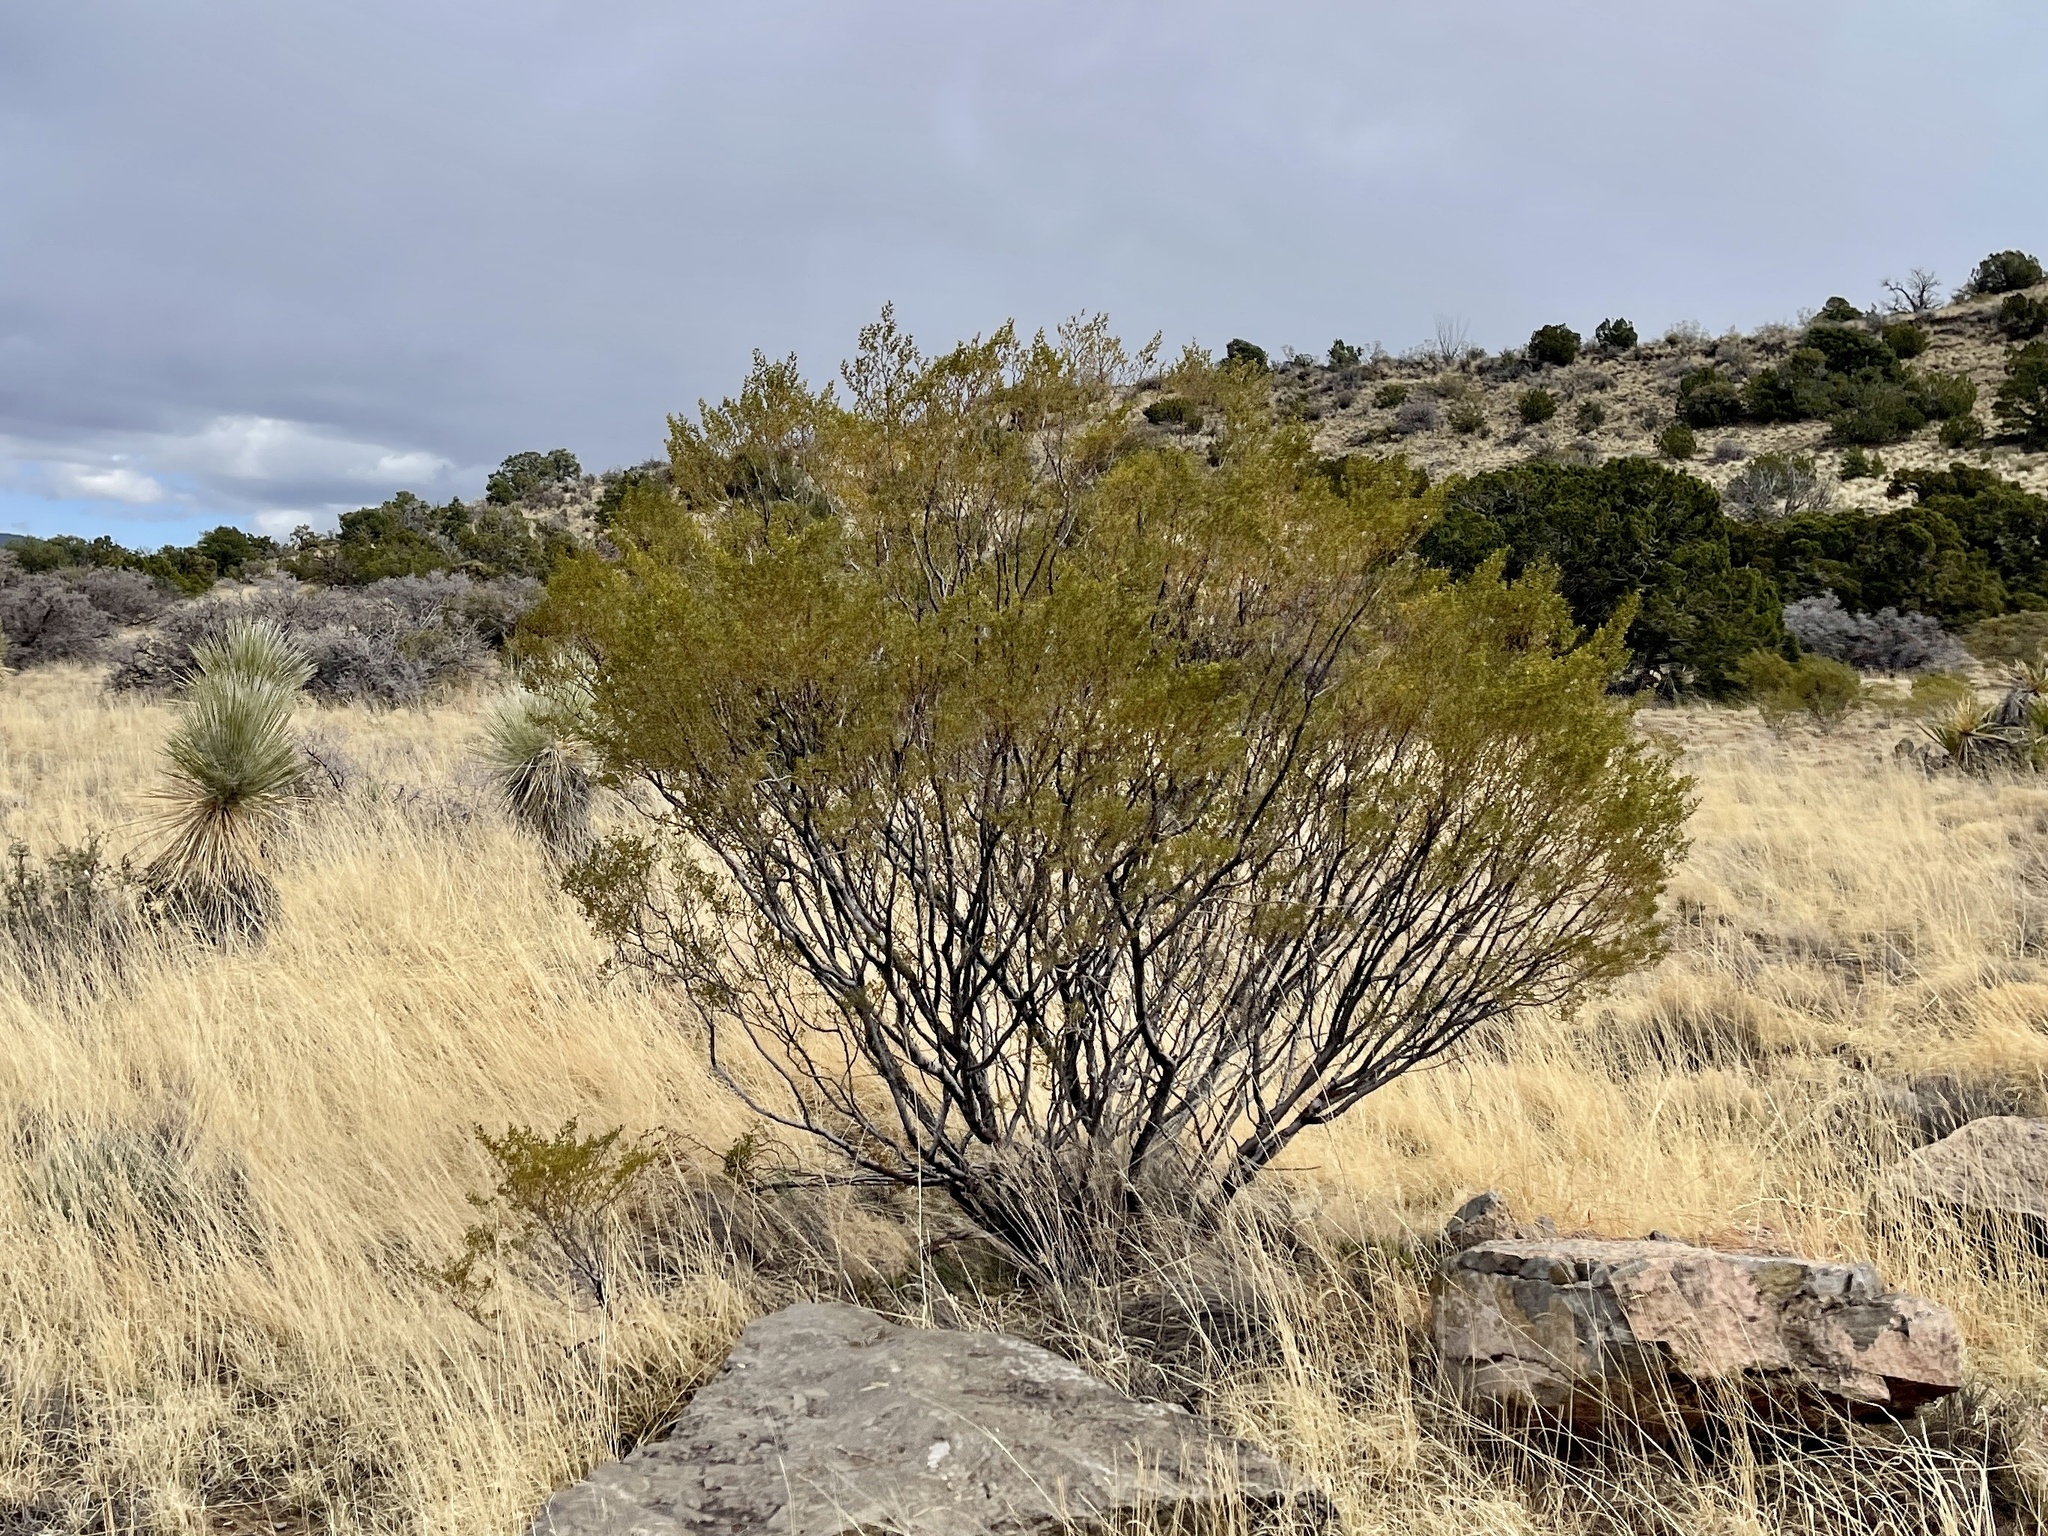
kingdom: Plantae
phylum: Tracheophyta
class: Magnoliopsida
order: Zygophyllales
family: Zygophyllaceae
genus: Larrea
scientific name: Larrea tridentata
